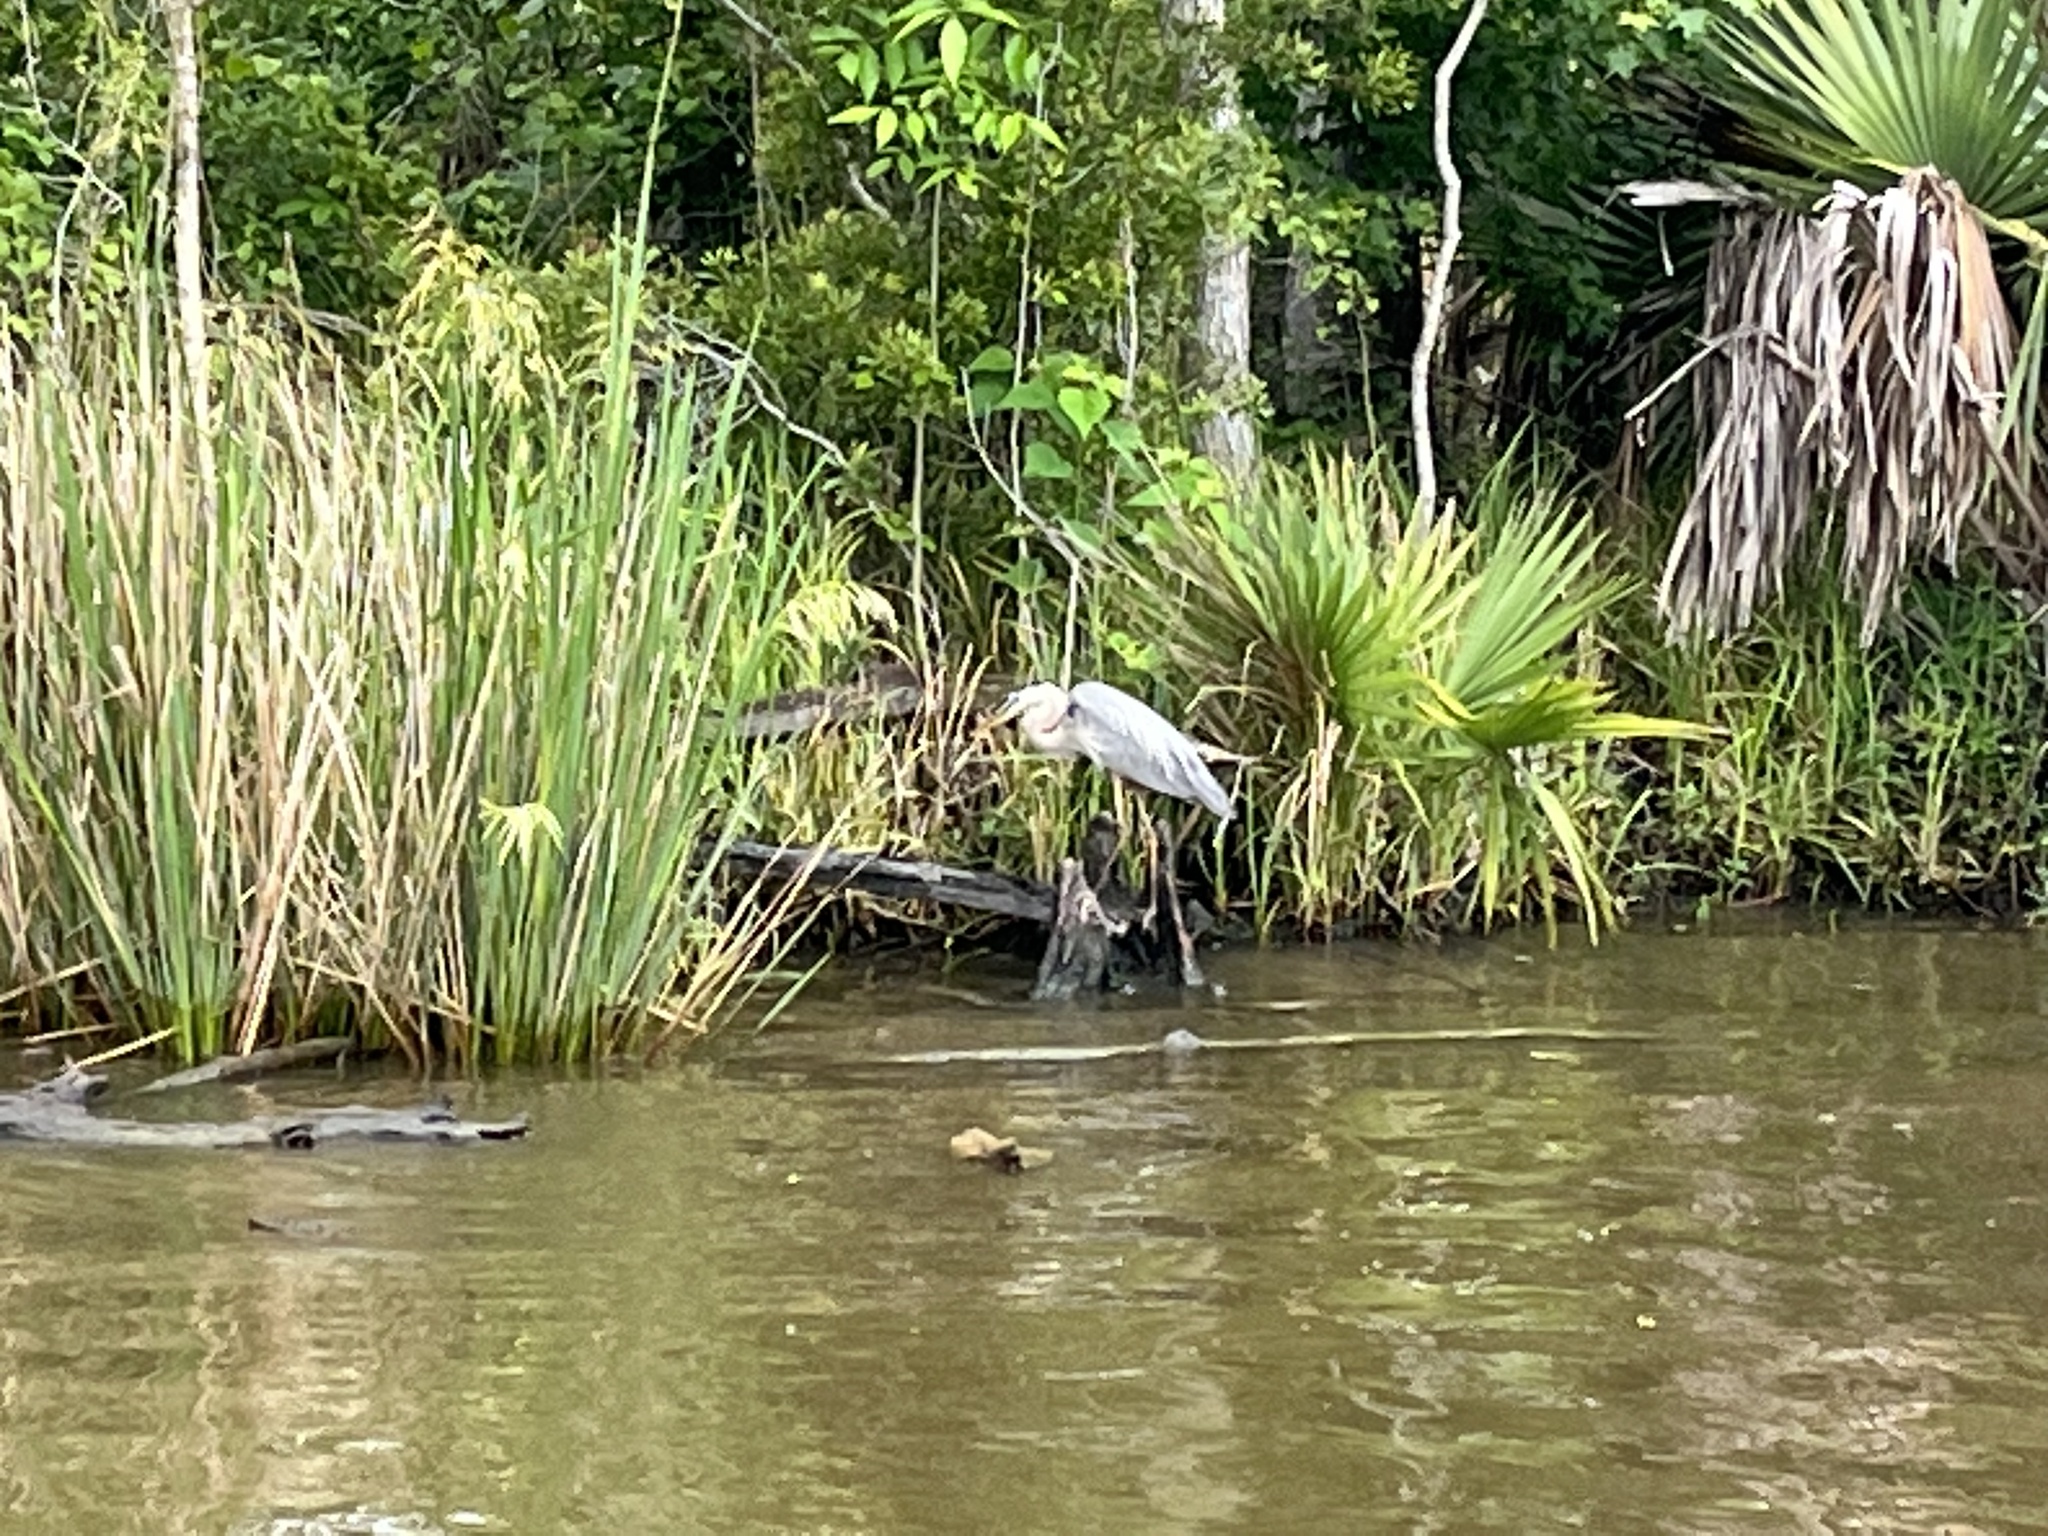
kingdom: Animalia
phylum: Chordata
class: Aves
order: Pelecaniformes
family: Ardeidae
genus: Ardea
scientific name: Ardea herodias
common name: Great blue heron
